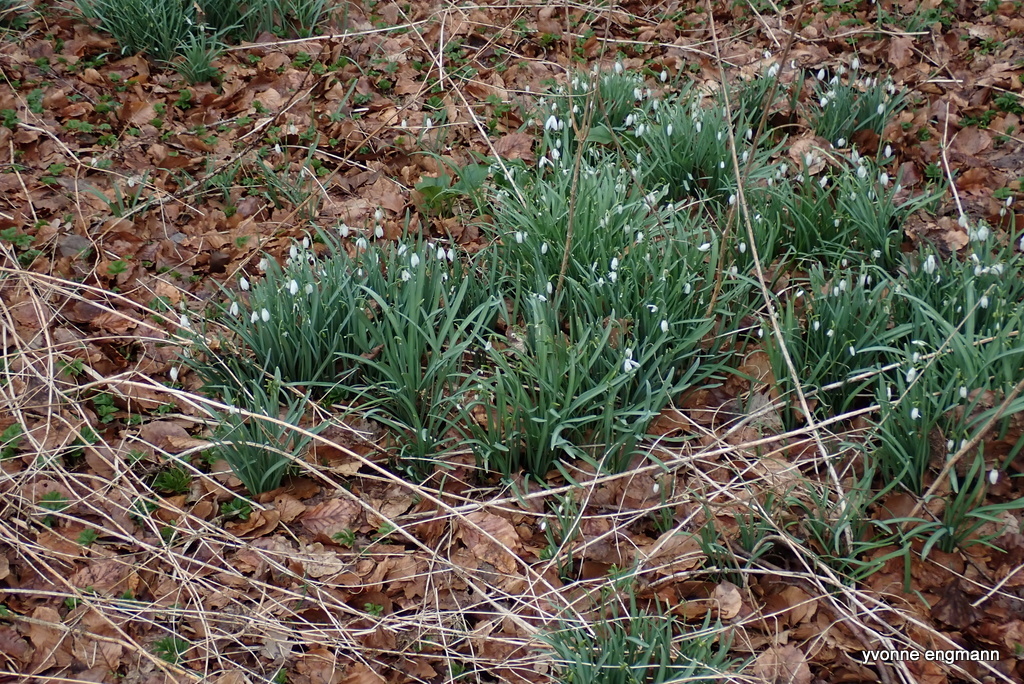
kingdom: Plantae
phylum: Tracheophyta
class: Liliopsida
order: Asparagales
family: Amaryllidaceae
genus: Galanthus
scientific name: Galanthus nivalis
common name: Snowdrop
